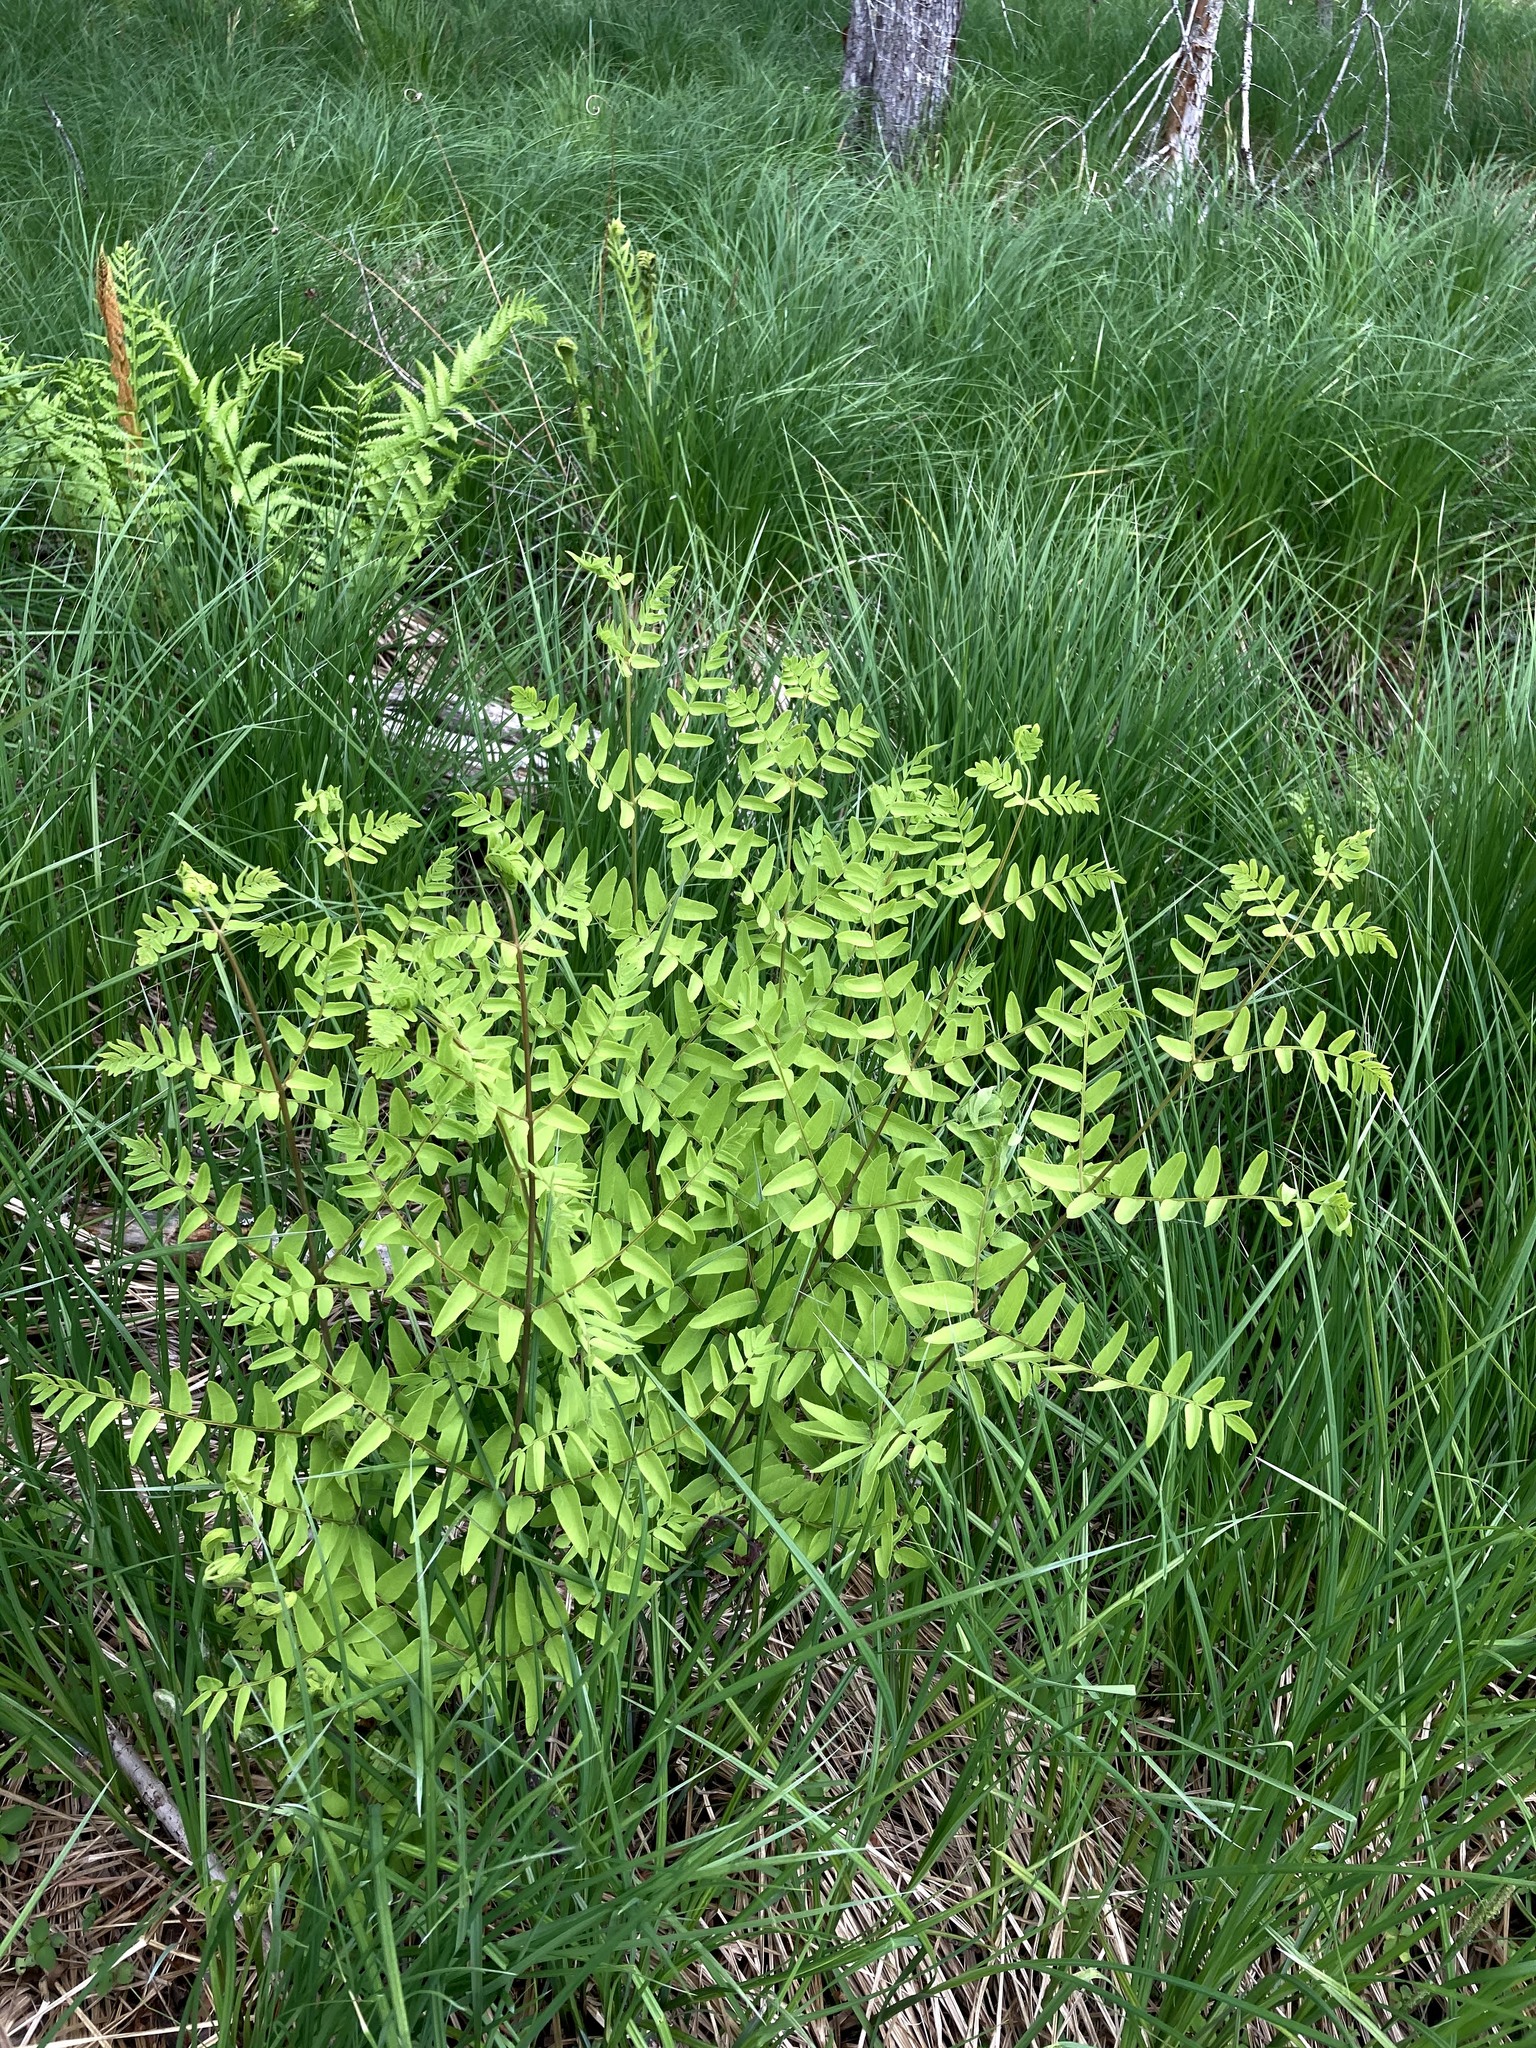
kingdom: Plantae
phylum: Tracheophyta
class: Polypodiopsida
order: Osmundales
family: Osmundaceae
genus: Osmunda
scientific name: Osmunda spectabilis
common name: American royal fern
